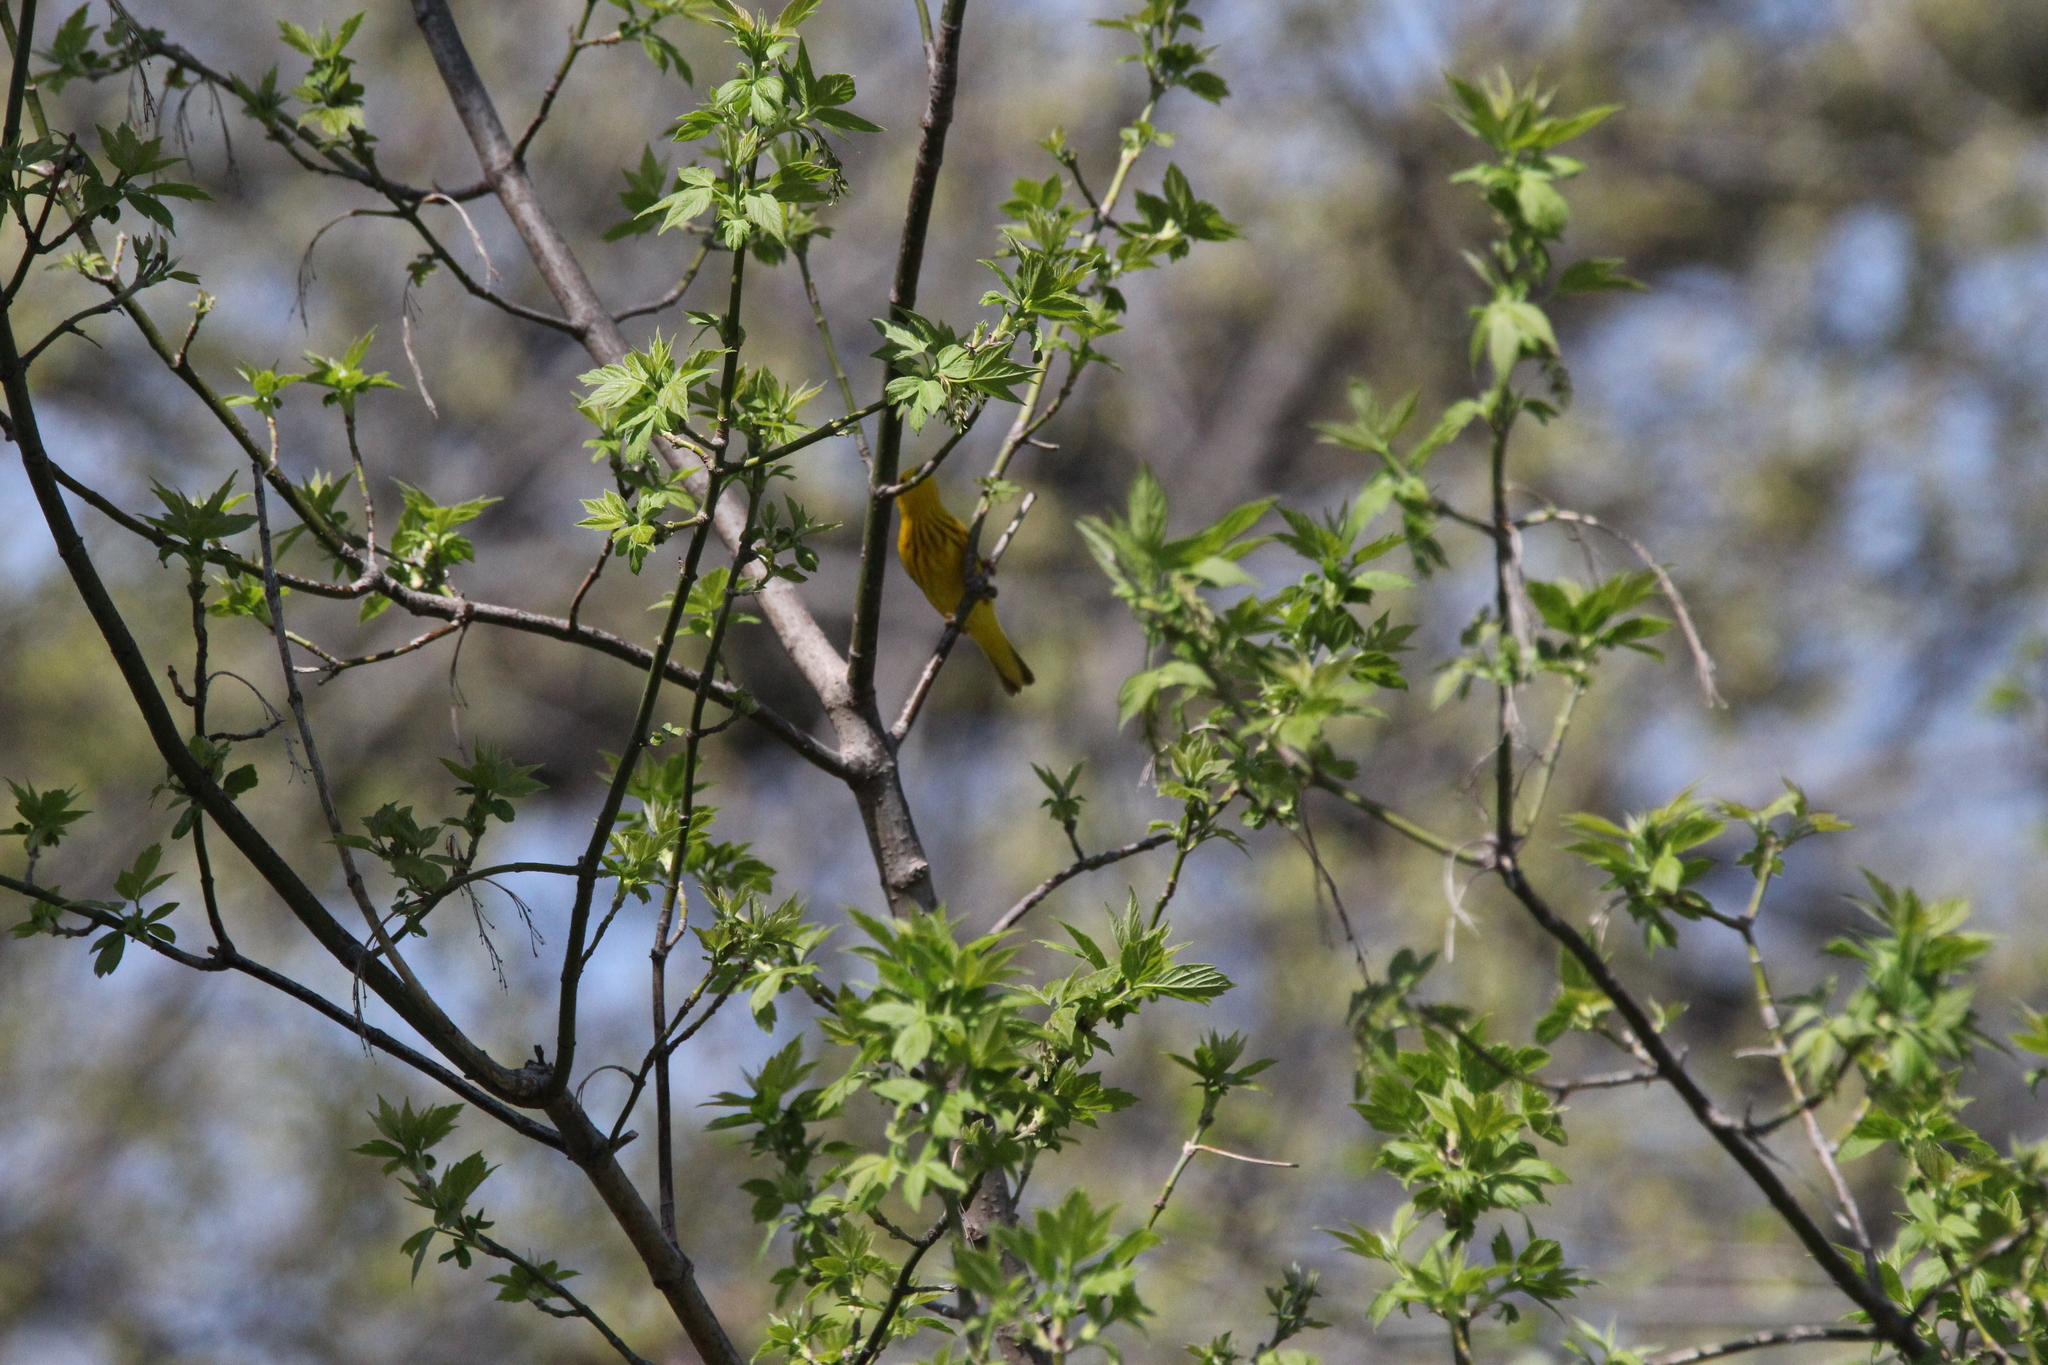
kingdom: Animalia
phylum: Chordata
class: Aves
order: Passeriformes
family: Parulidae
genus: Setophaga
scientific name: Setophaga petechia
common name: Yellow warbler
